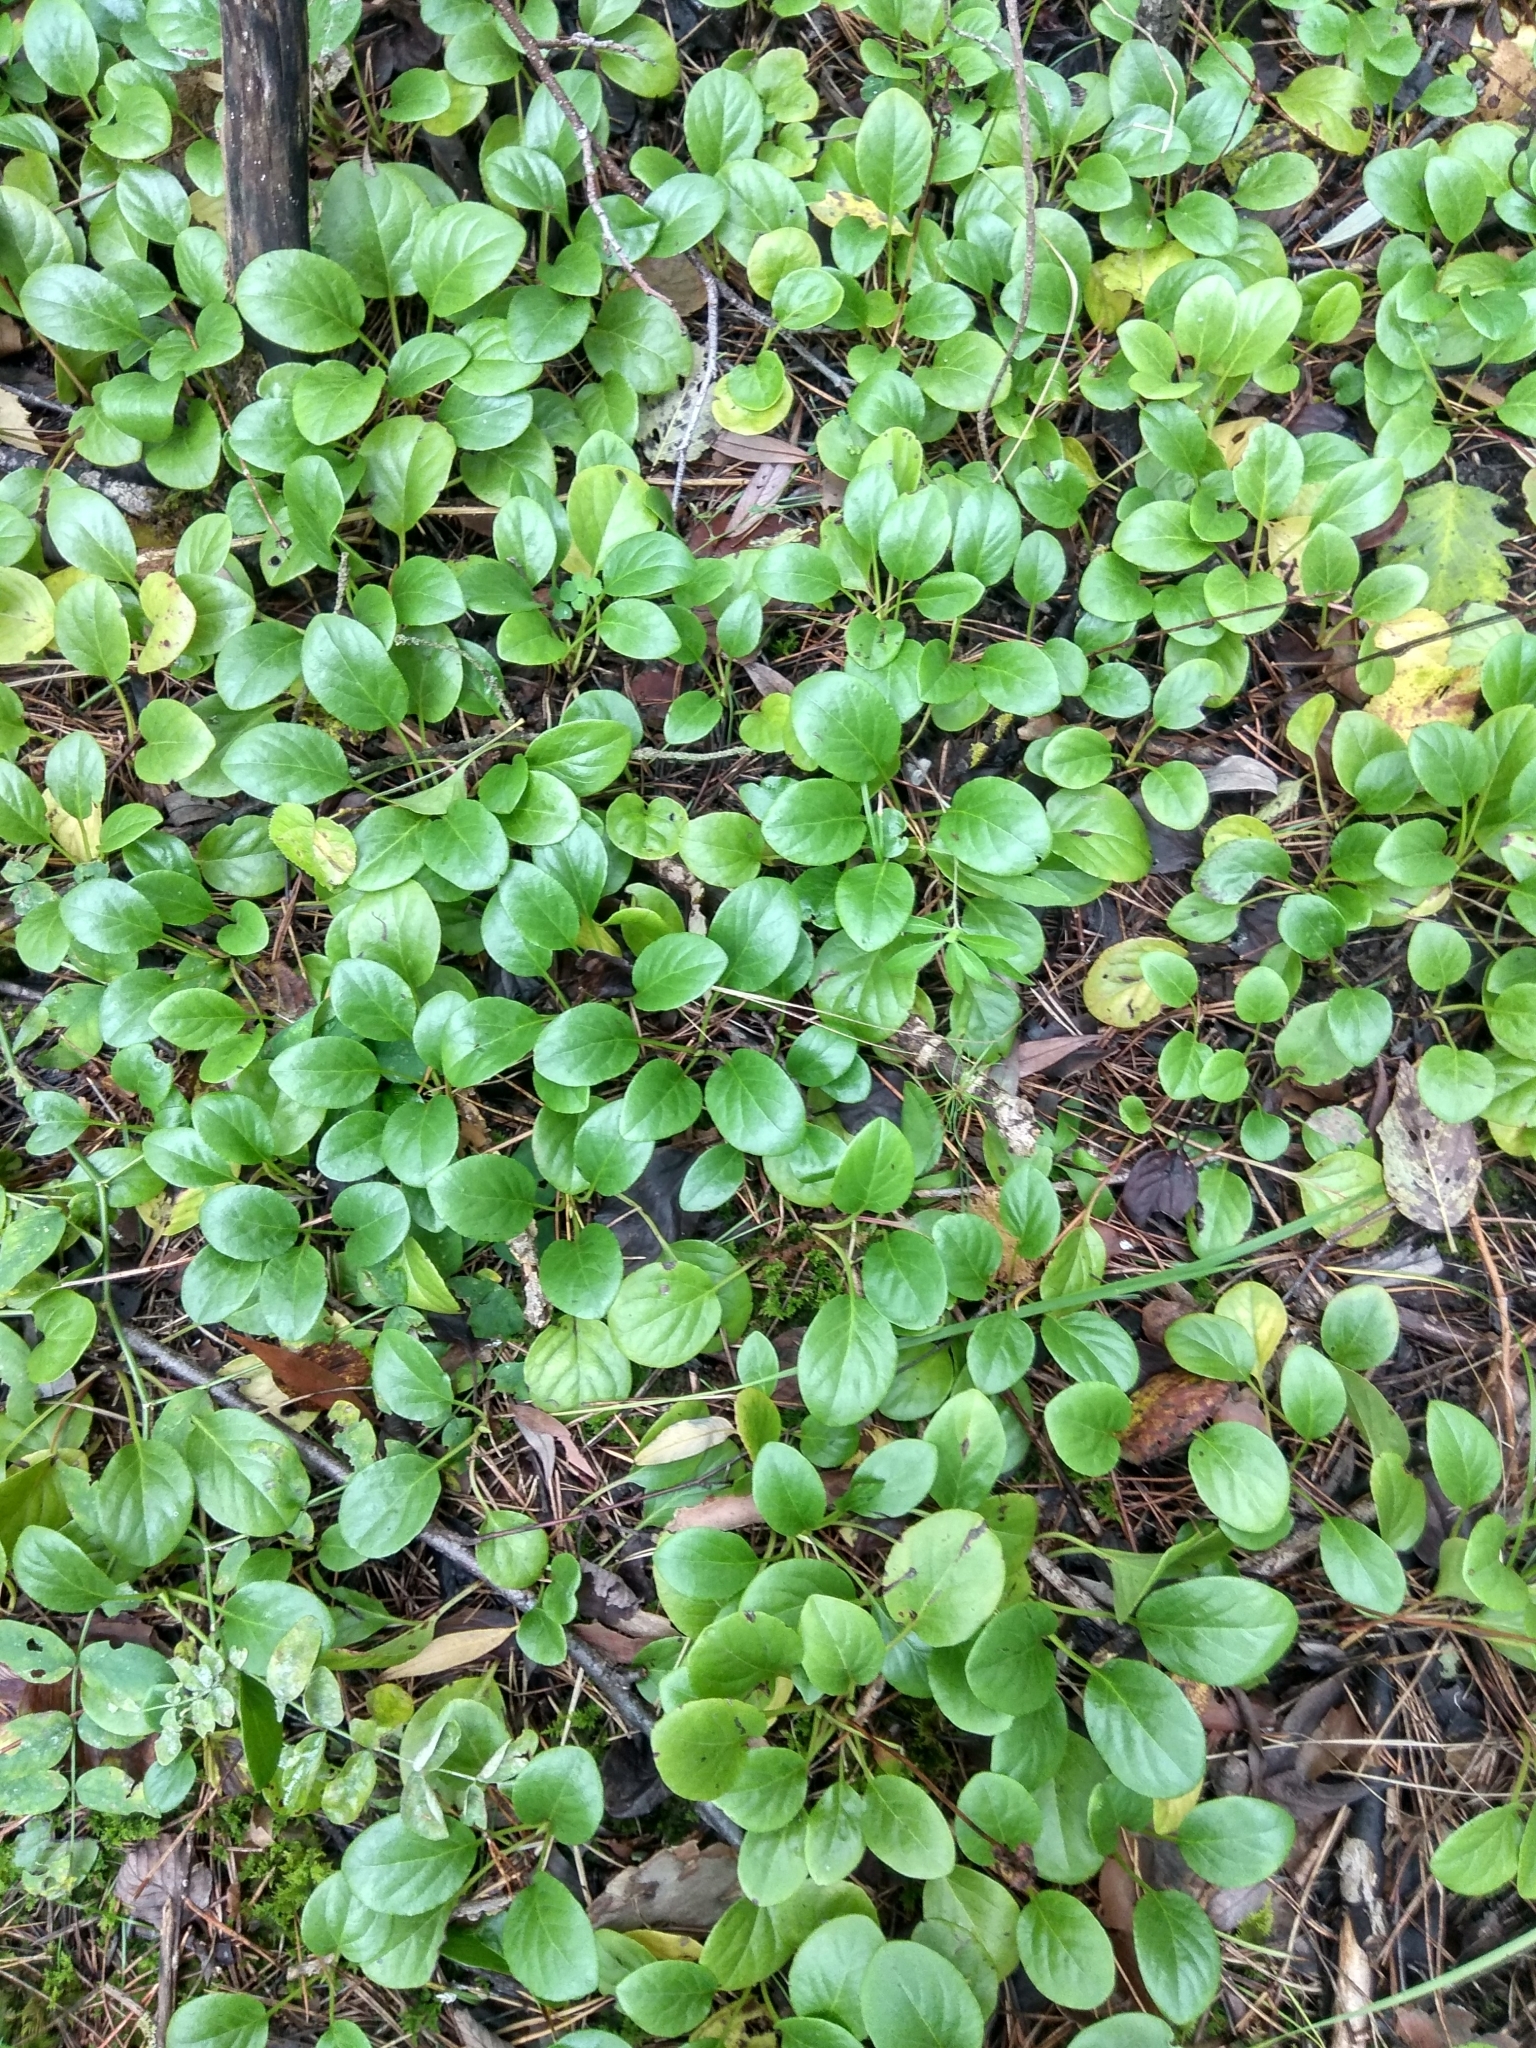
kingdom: Plantae
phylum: Tracheophyta
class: Magnoliopsida
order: Ericales
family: Ericaceae
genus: Pyrola
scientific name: Pyrola rotundifolia
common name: Round-leaved wintergreen
